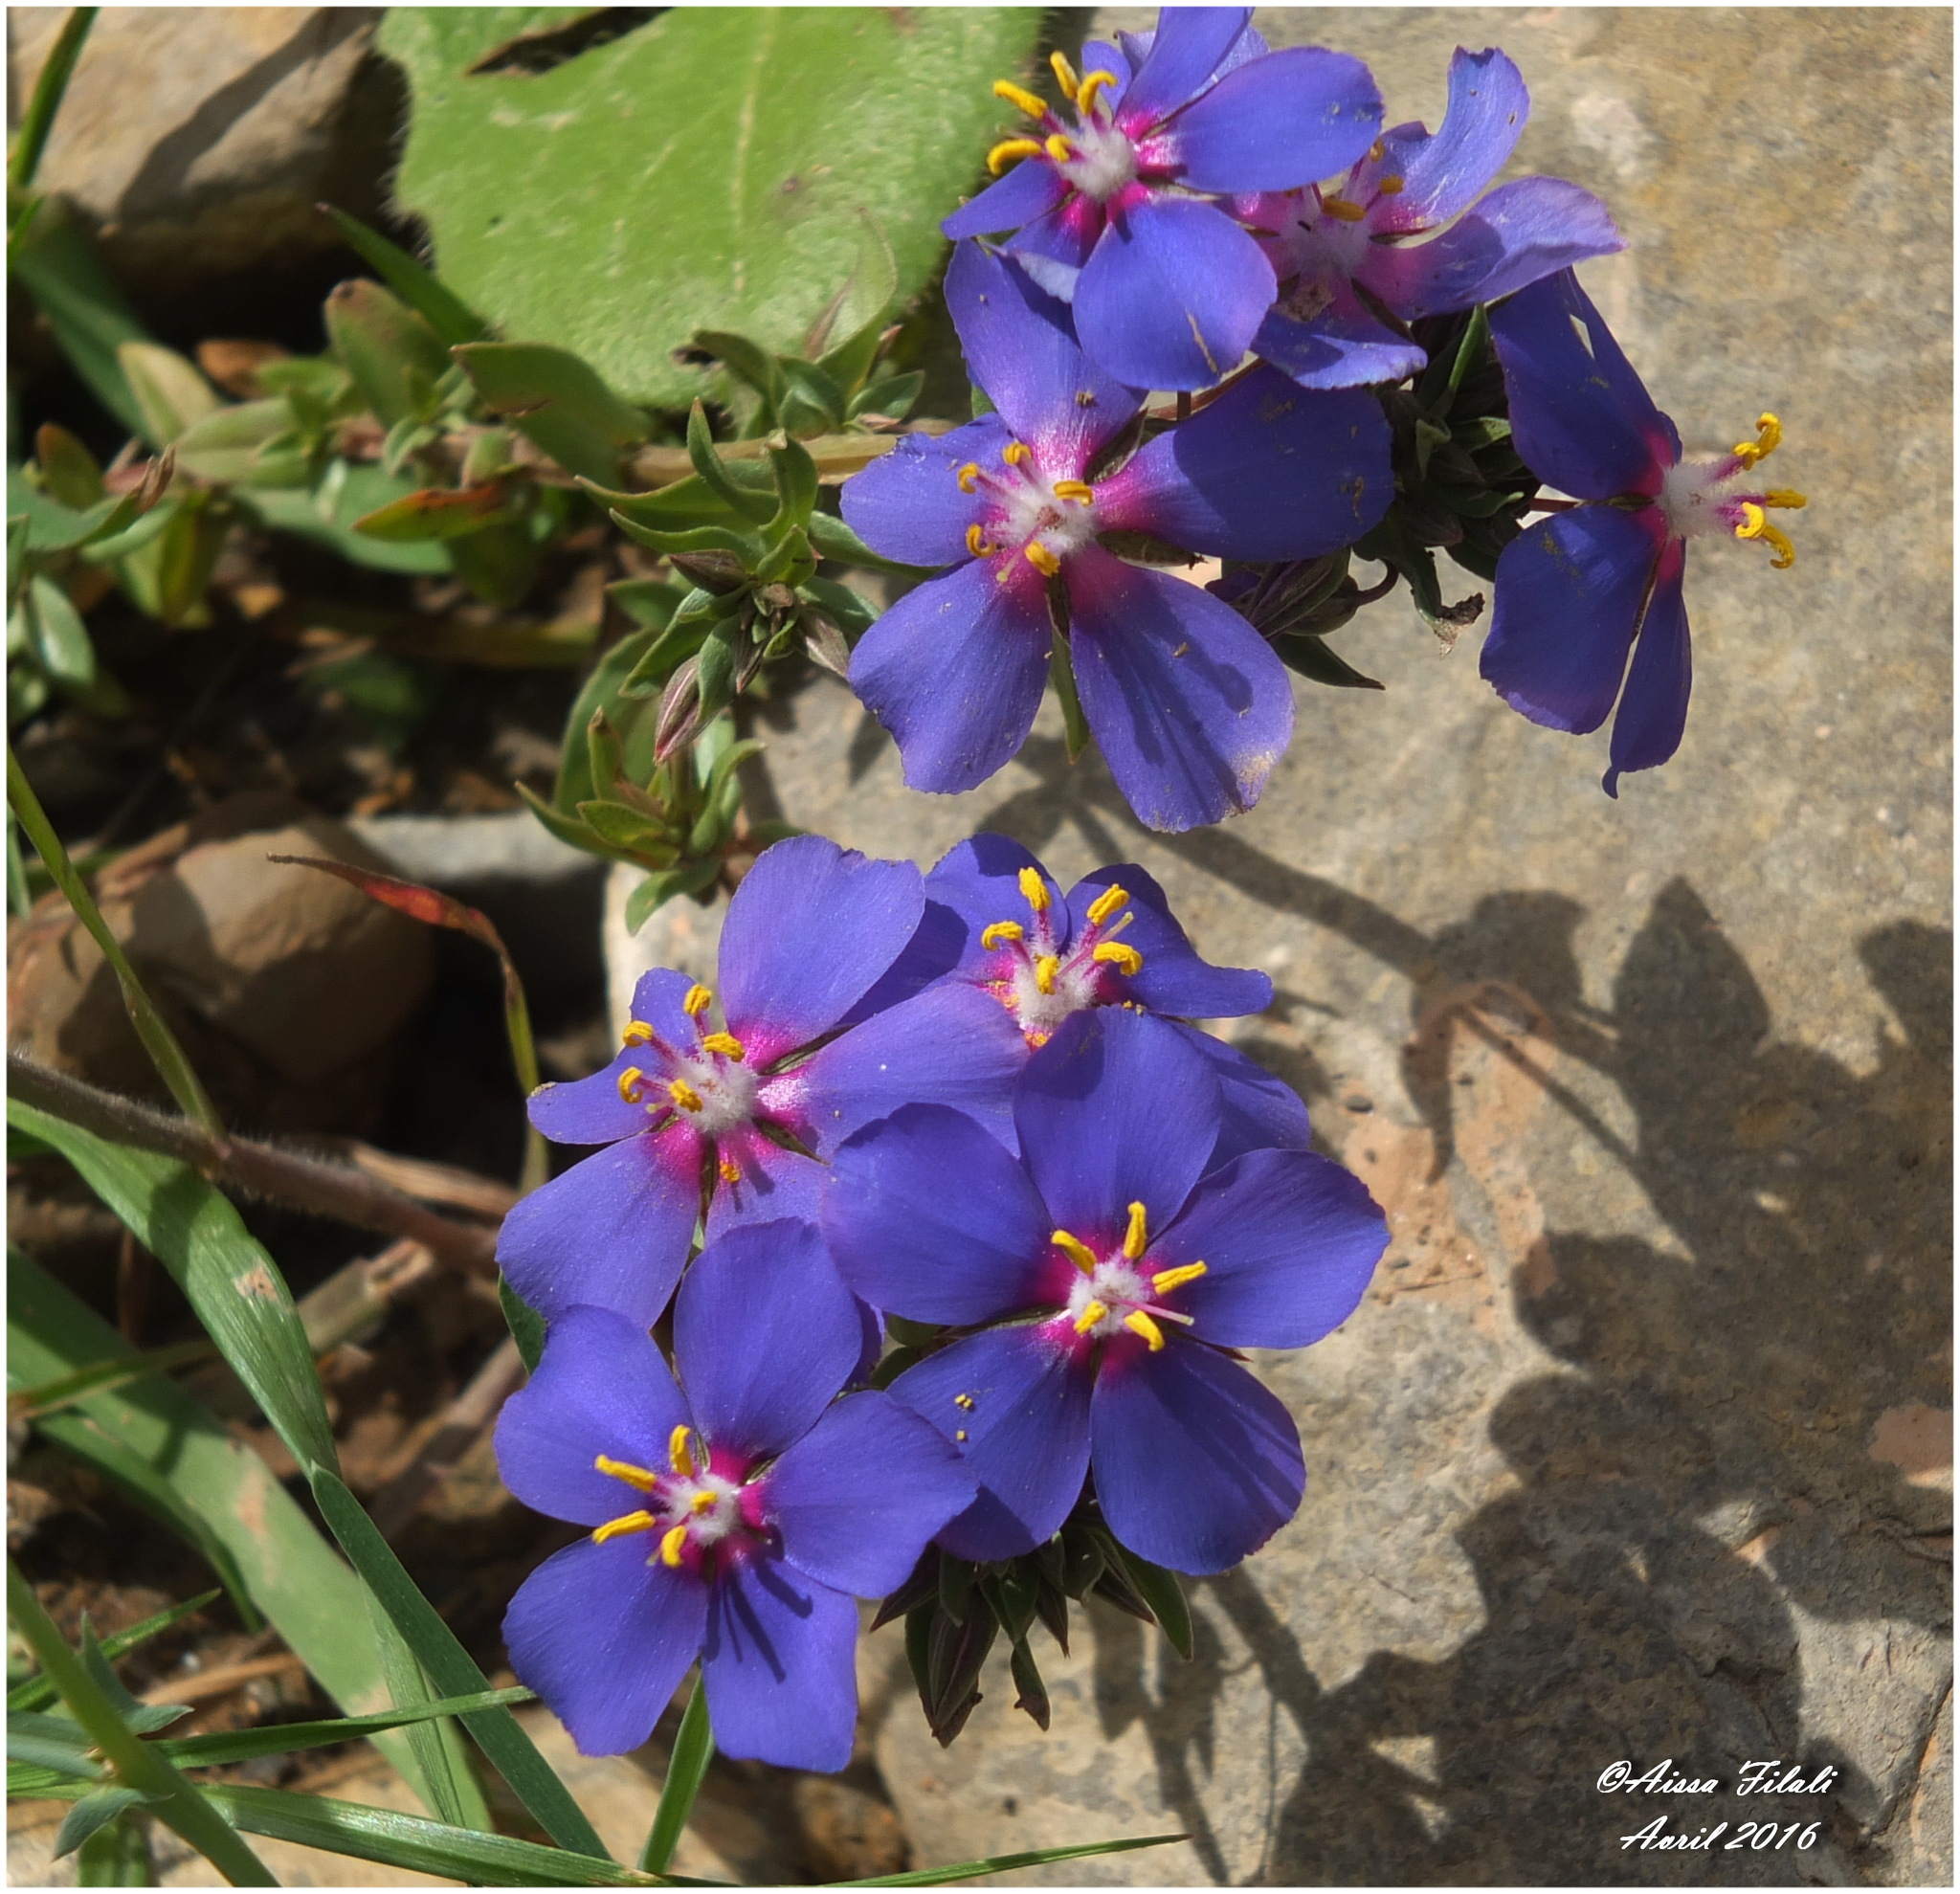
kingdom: Plantae
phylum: Tracheophyta
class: Magnoliopsida
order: Ericales
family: Primulaceae
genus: Lysimachia
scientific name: Lysimachia monelli
